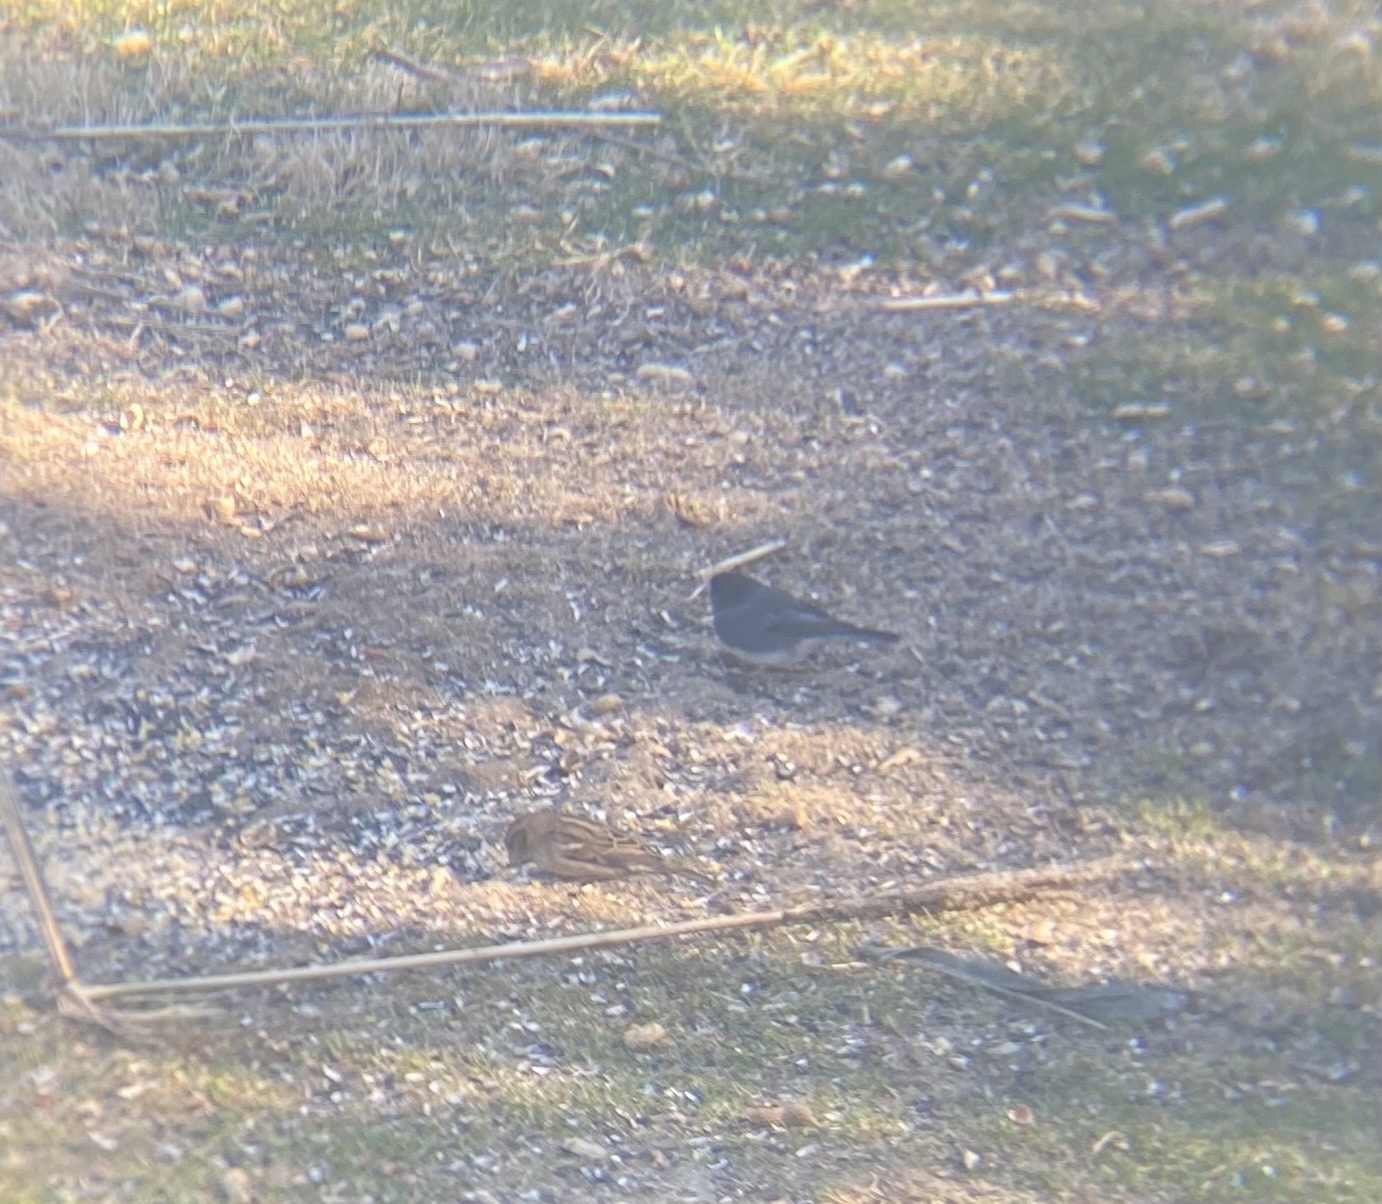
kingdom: Animalia
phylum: Chordata
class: Aves
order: Passeriformes
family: Passerellidae
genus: Junco
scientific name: Junco hyemalis
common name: Dark-eyed junco
